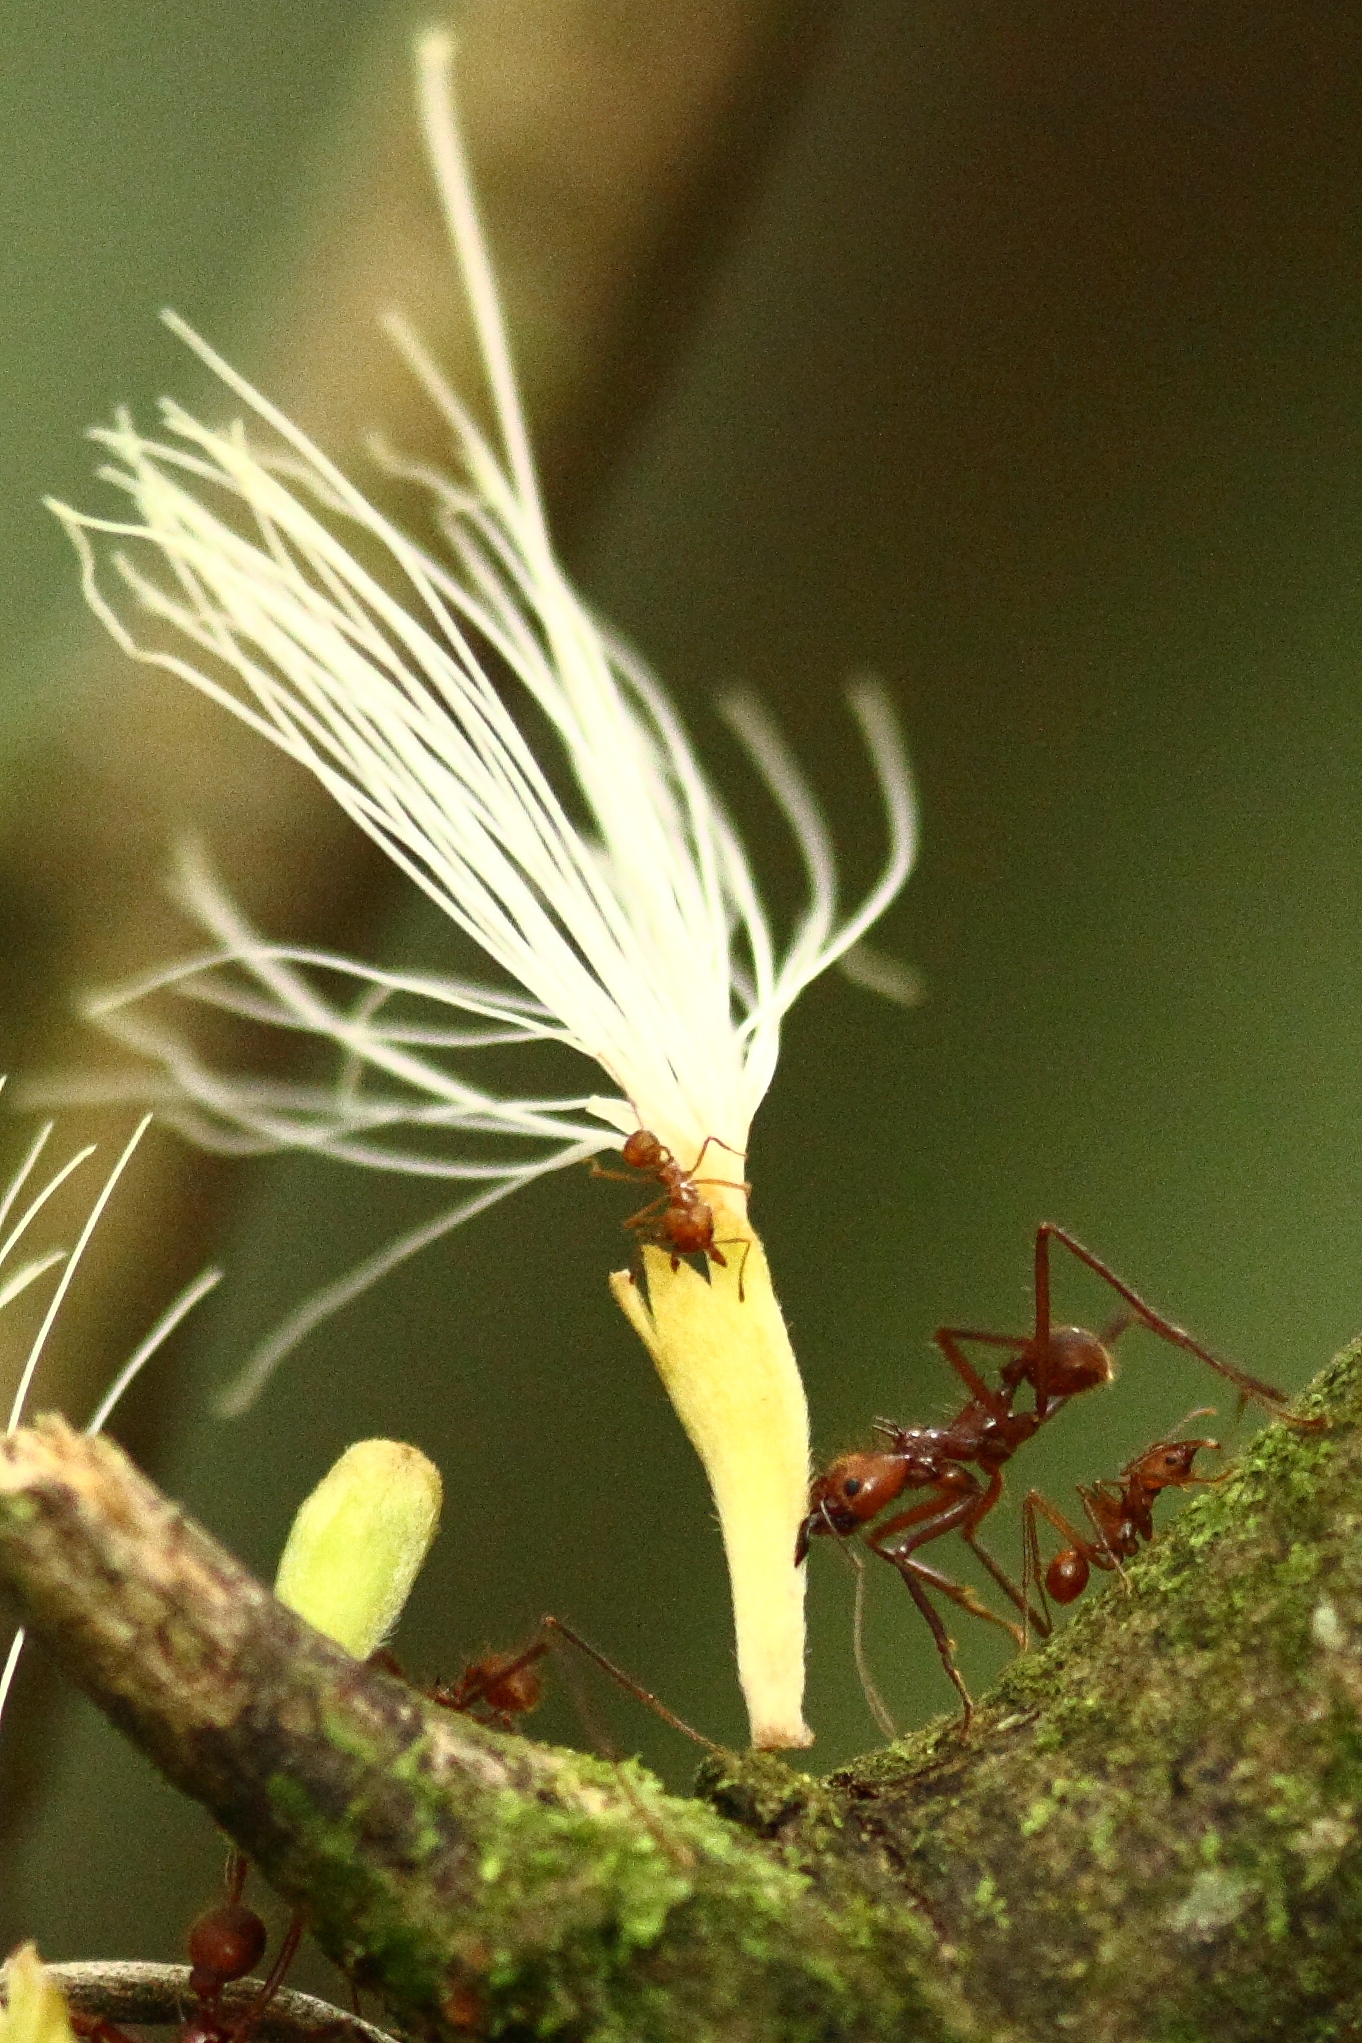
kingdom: Animalia
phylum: Arthropoda
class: Insecta
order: Hymenoptera
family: Formicidae
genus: Atta
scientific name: Atta cephalotes
